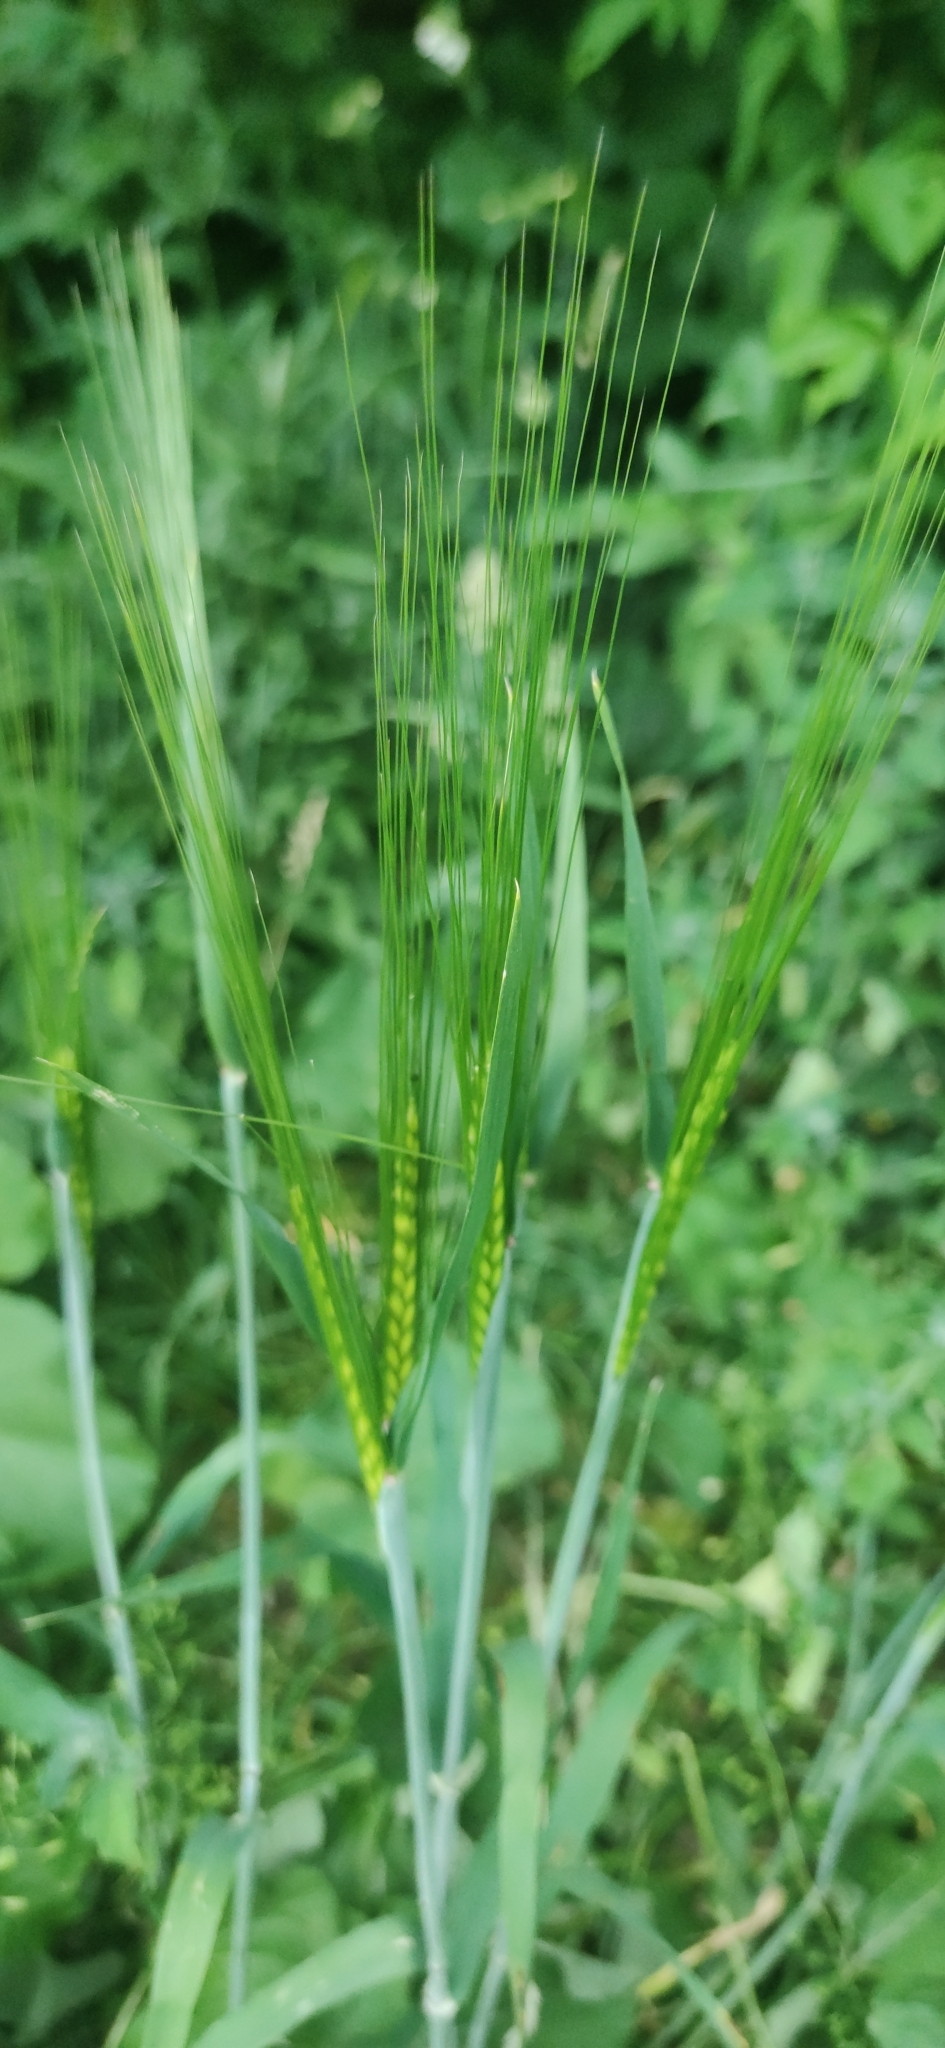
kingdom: Plantae
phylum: Tracheophyta
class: Liliopsida
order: Poales
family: Poaceae
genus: Hordeum
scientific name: Hordeum vulgare
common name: Common barley
